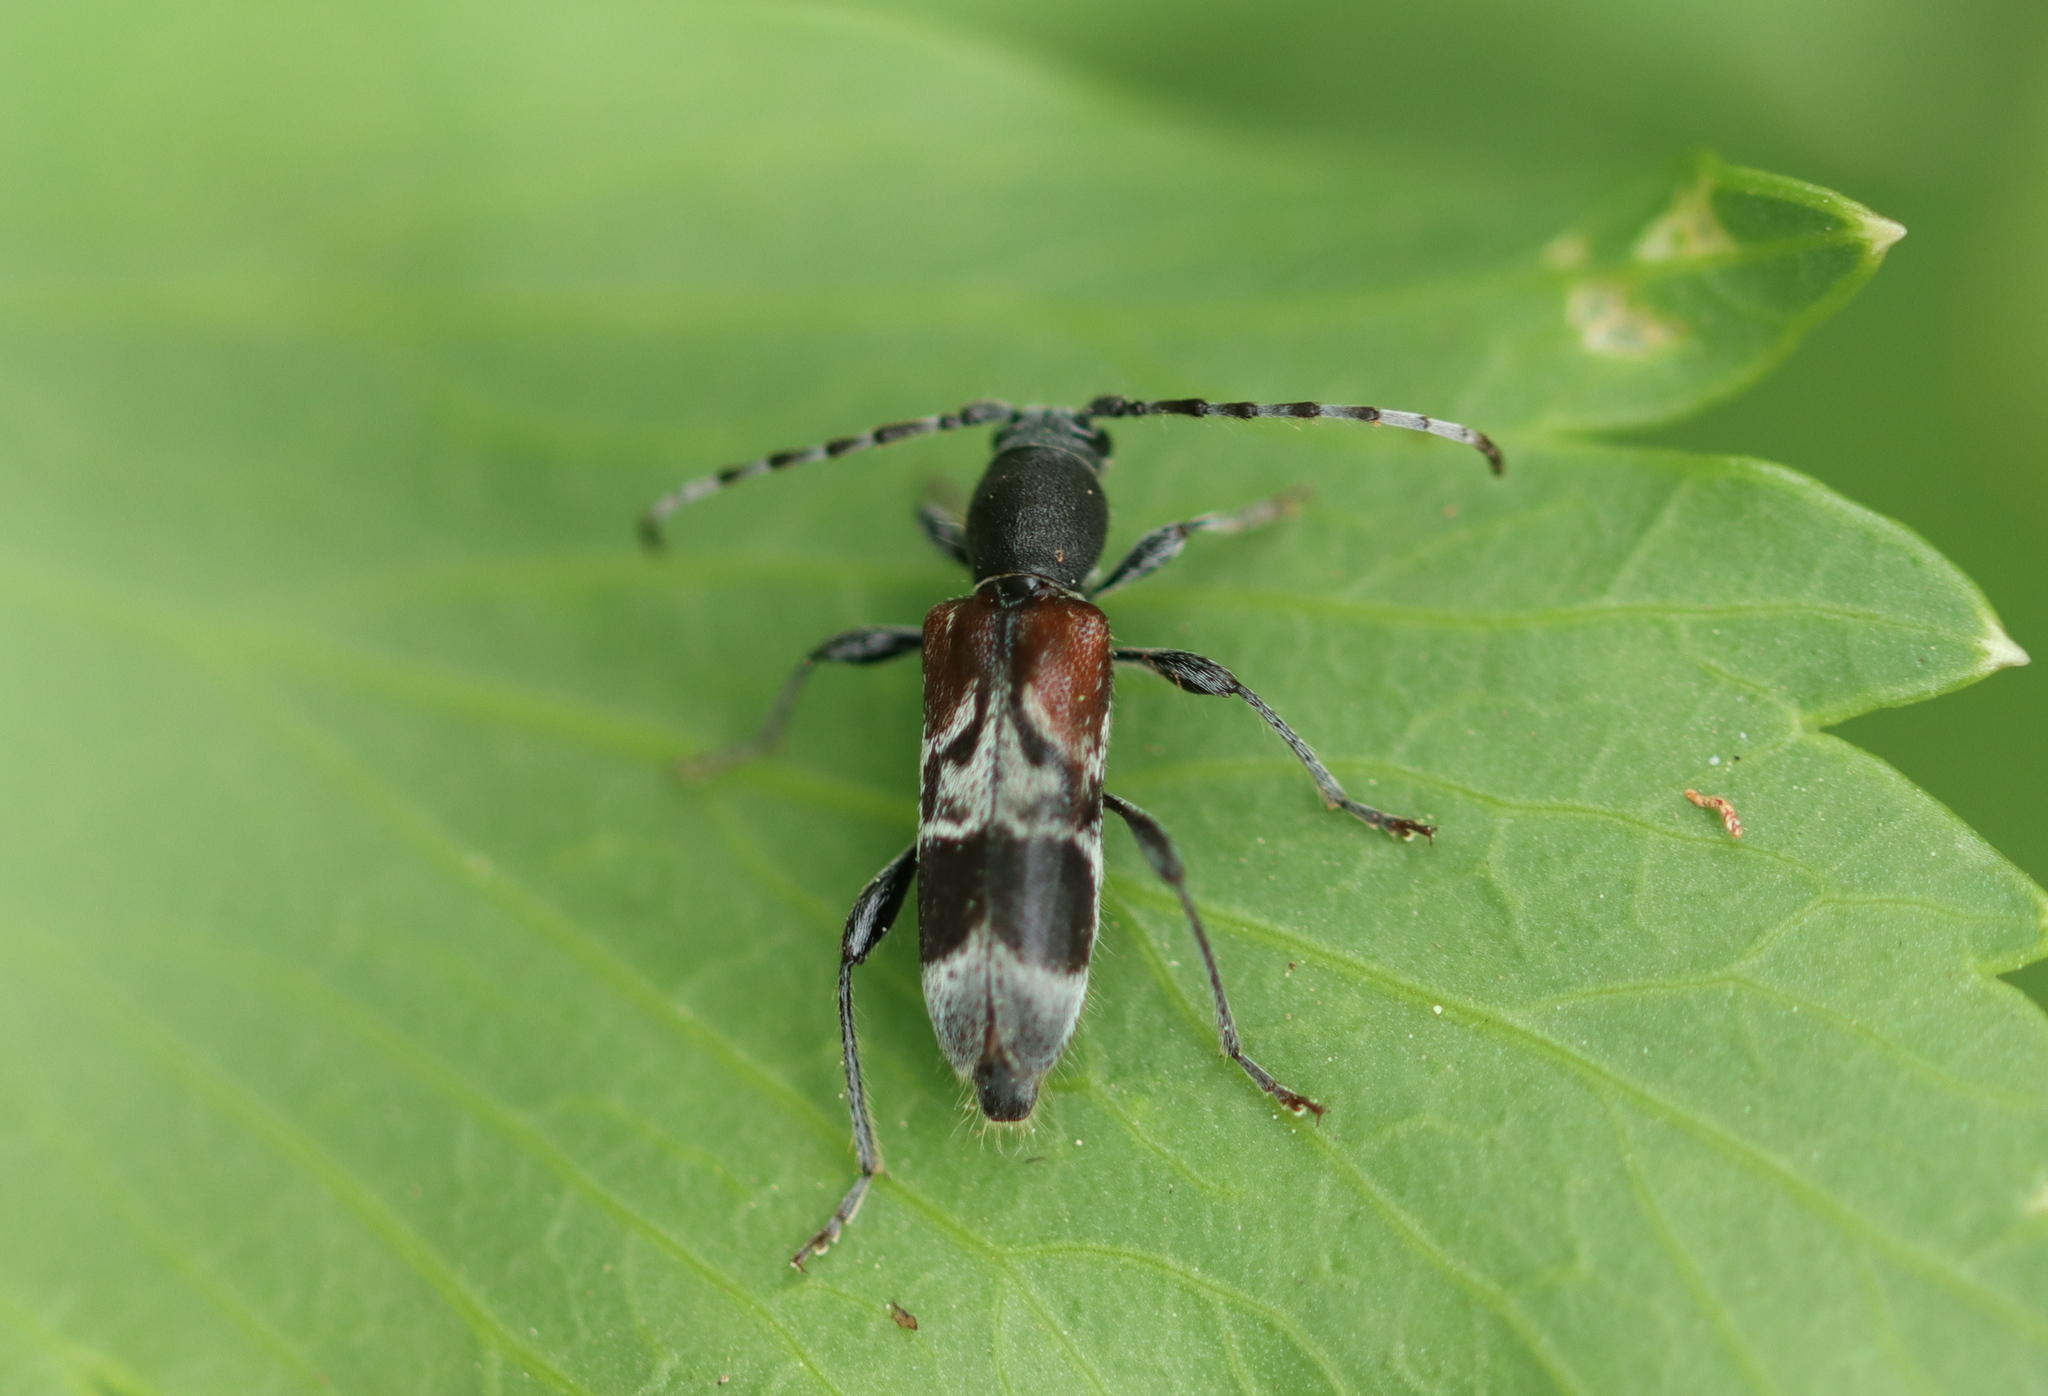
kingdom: Animalia
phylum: Arthropoda
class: Insecta
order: Coleoptera
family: Cerambycidae
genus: Anaglyptus
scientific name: Anaglyptus mysticus
